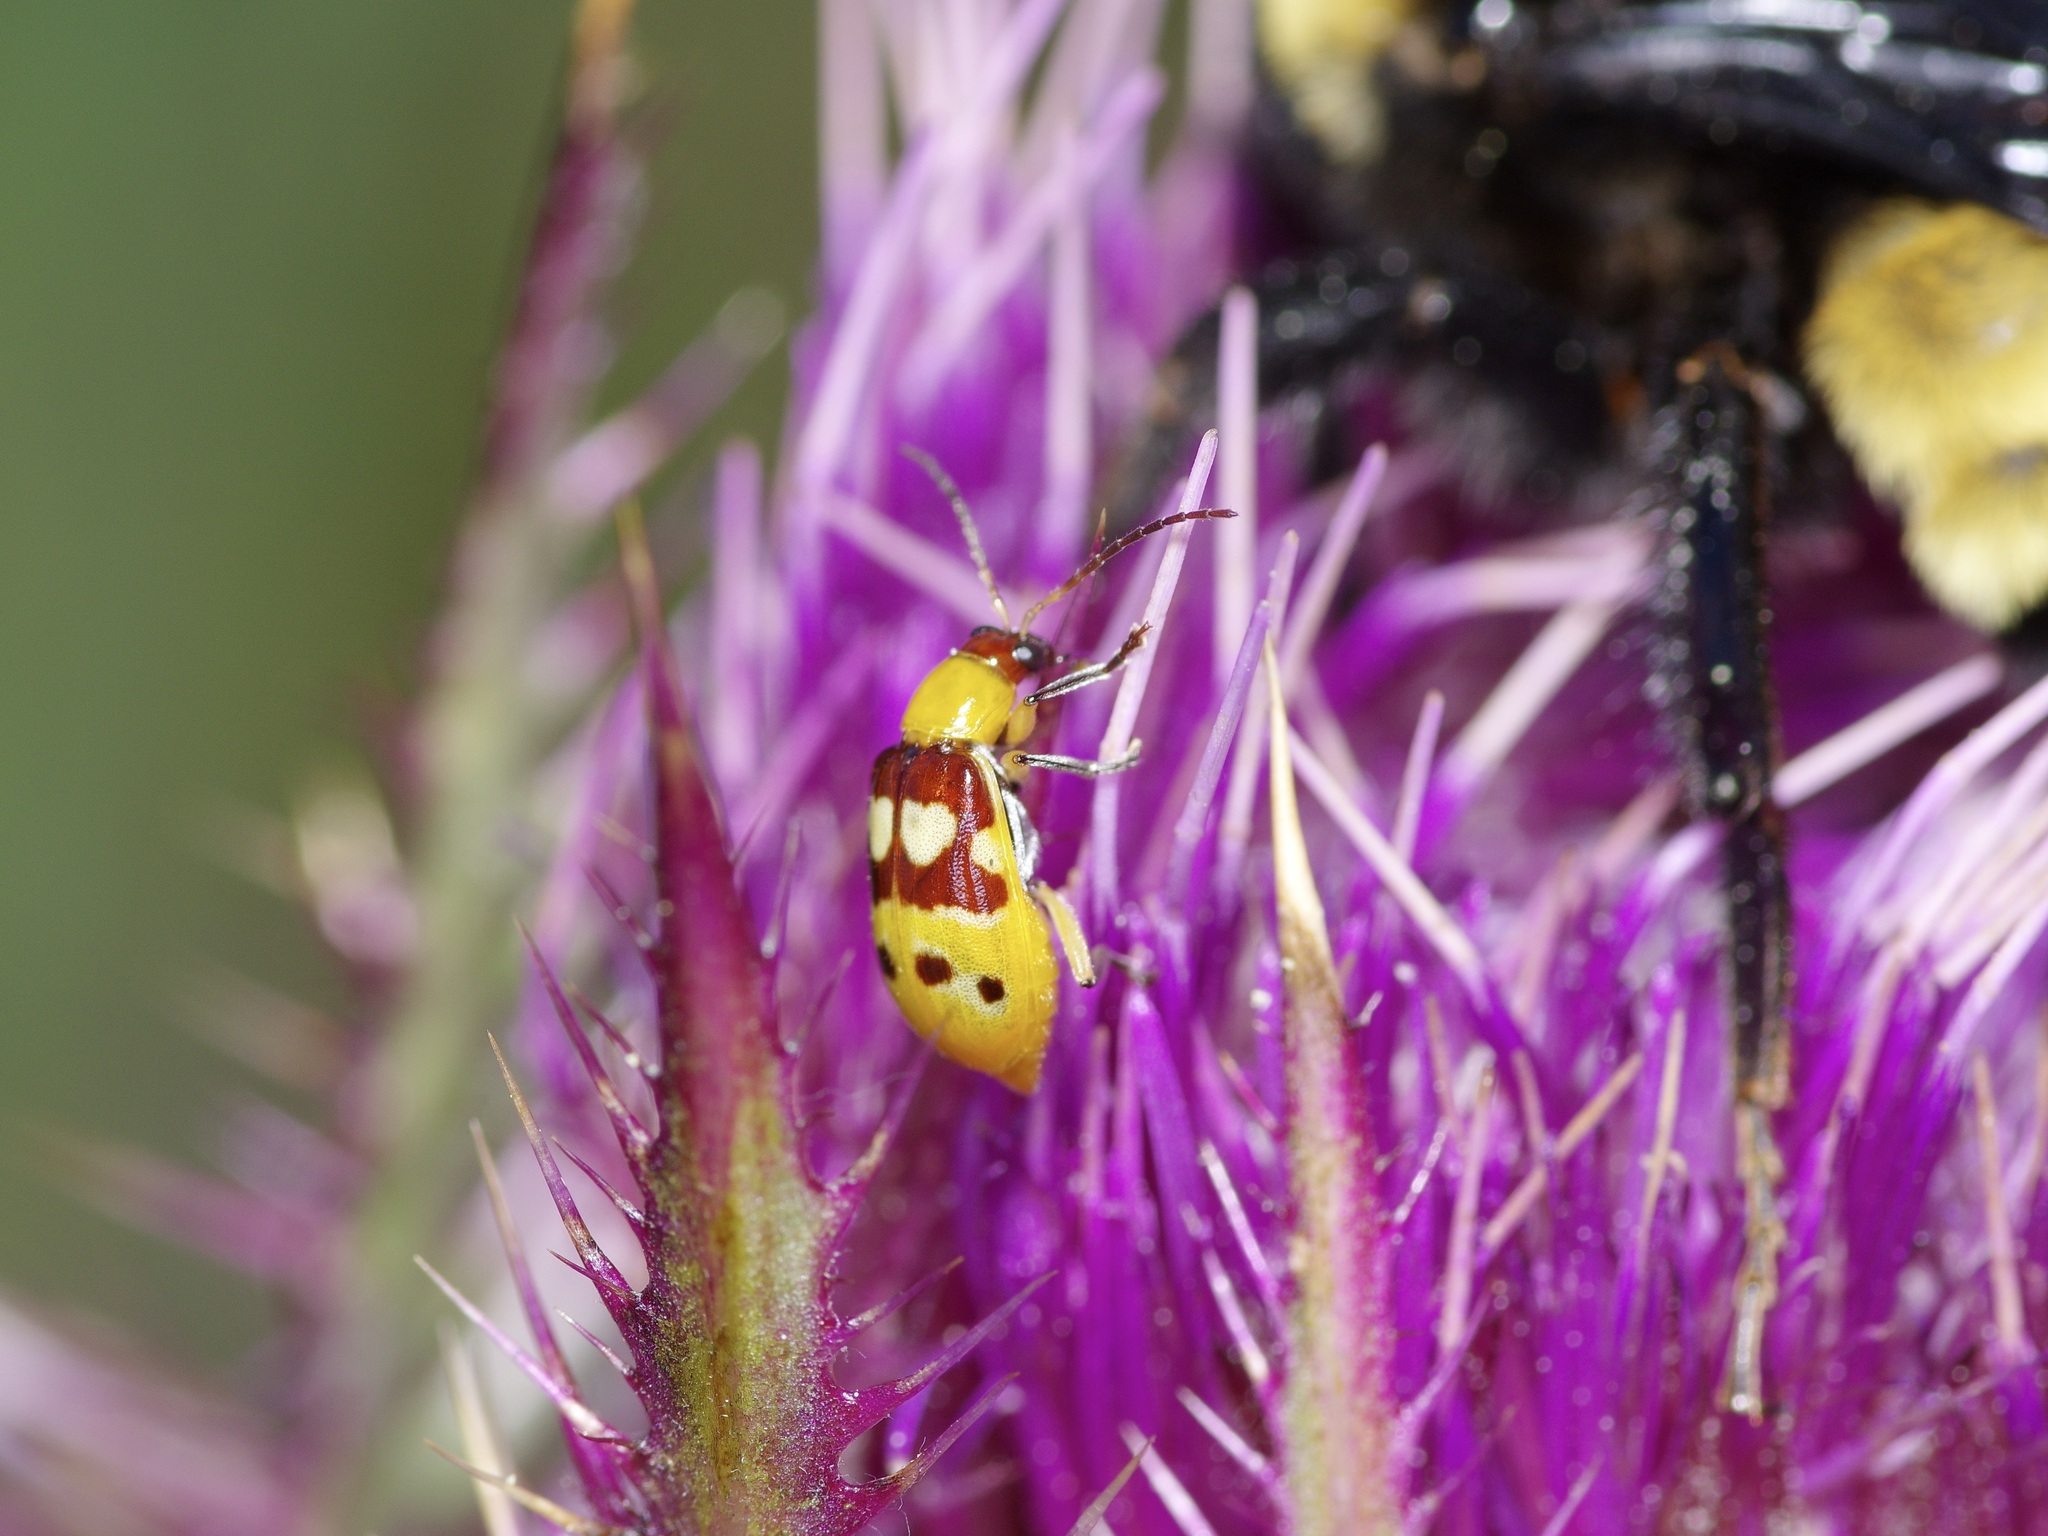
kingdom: Animalia
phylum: Arthropoda
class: Insecta
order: Coleoptera
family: Chrysomelidae
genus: Paranapiacaba
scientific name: Paranapiacaba connexa
